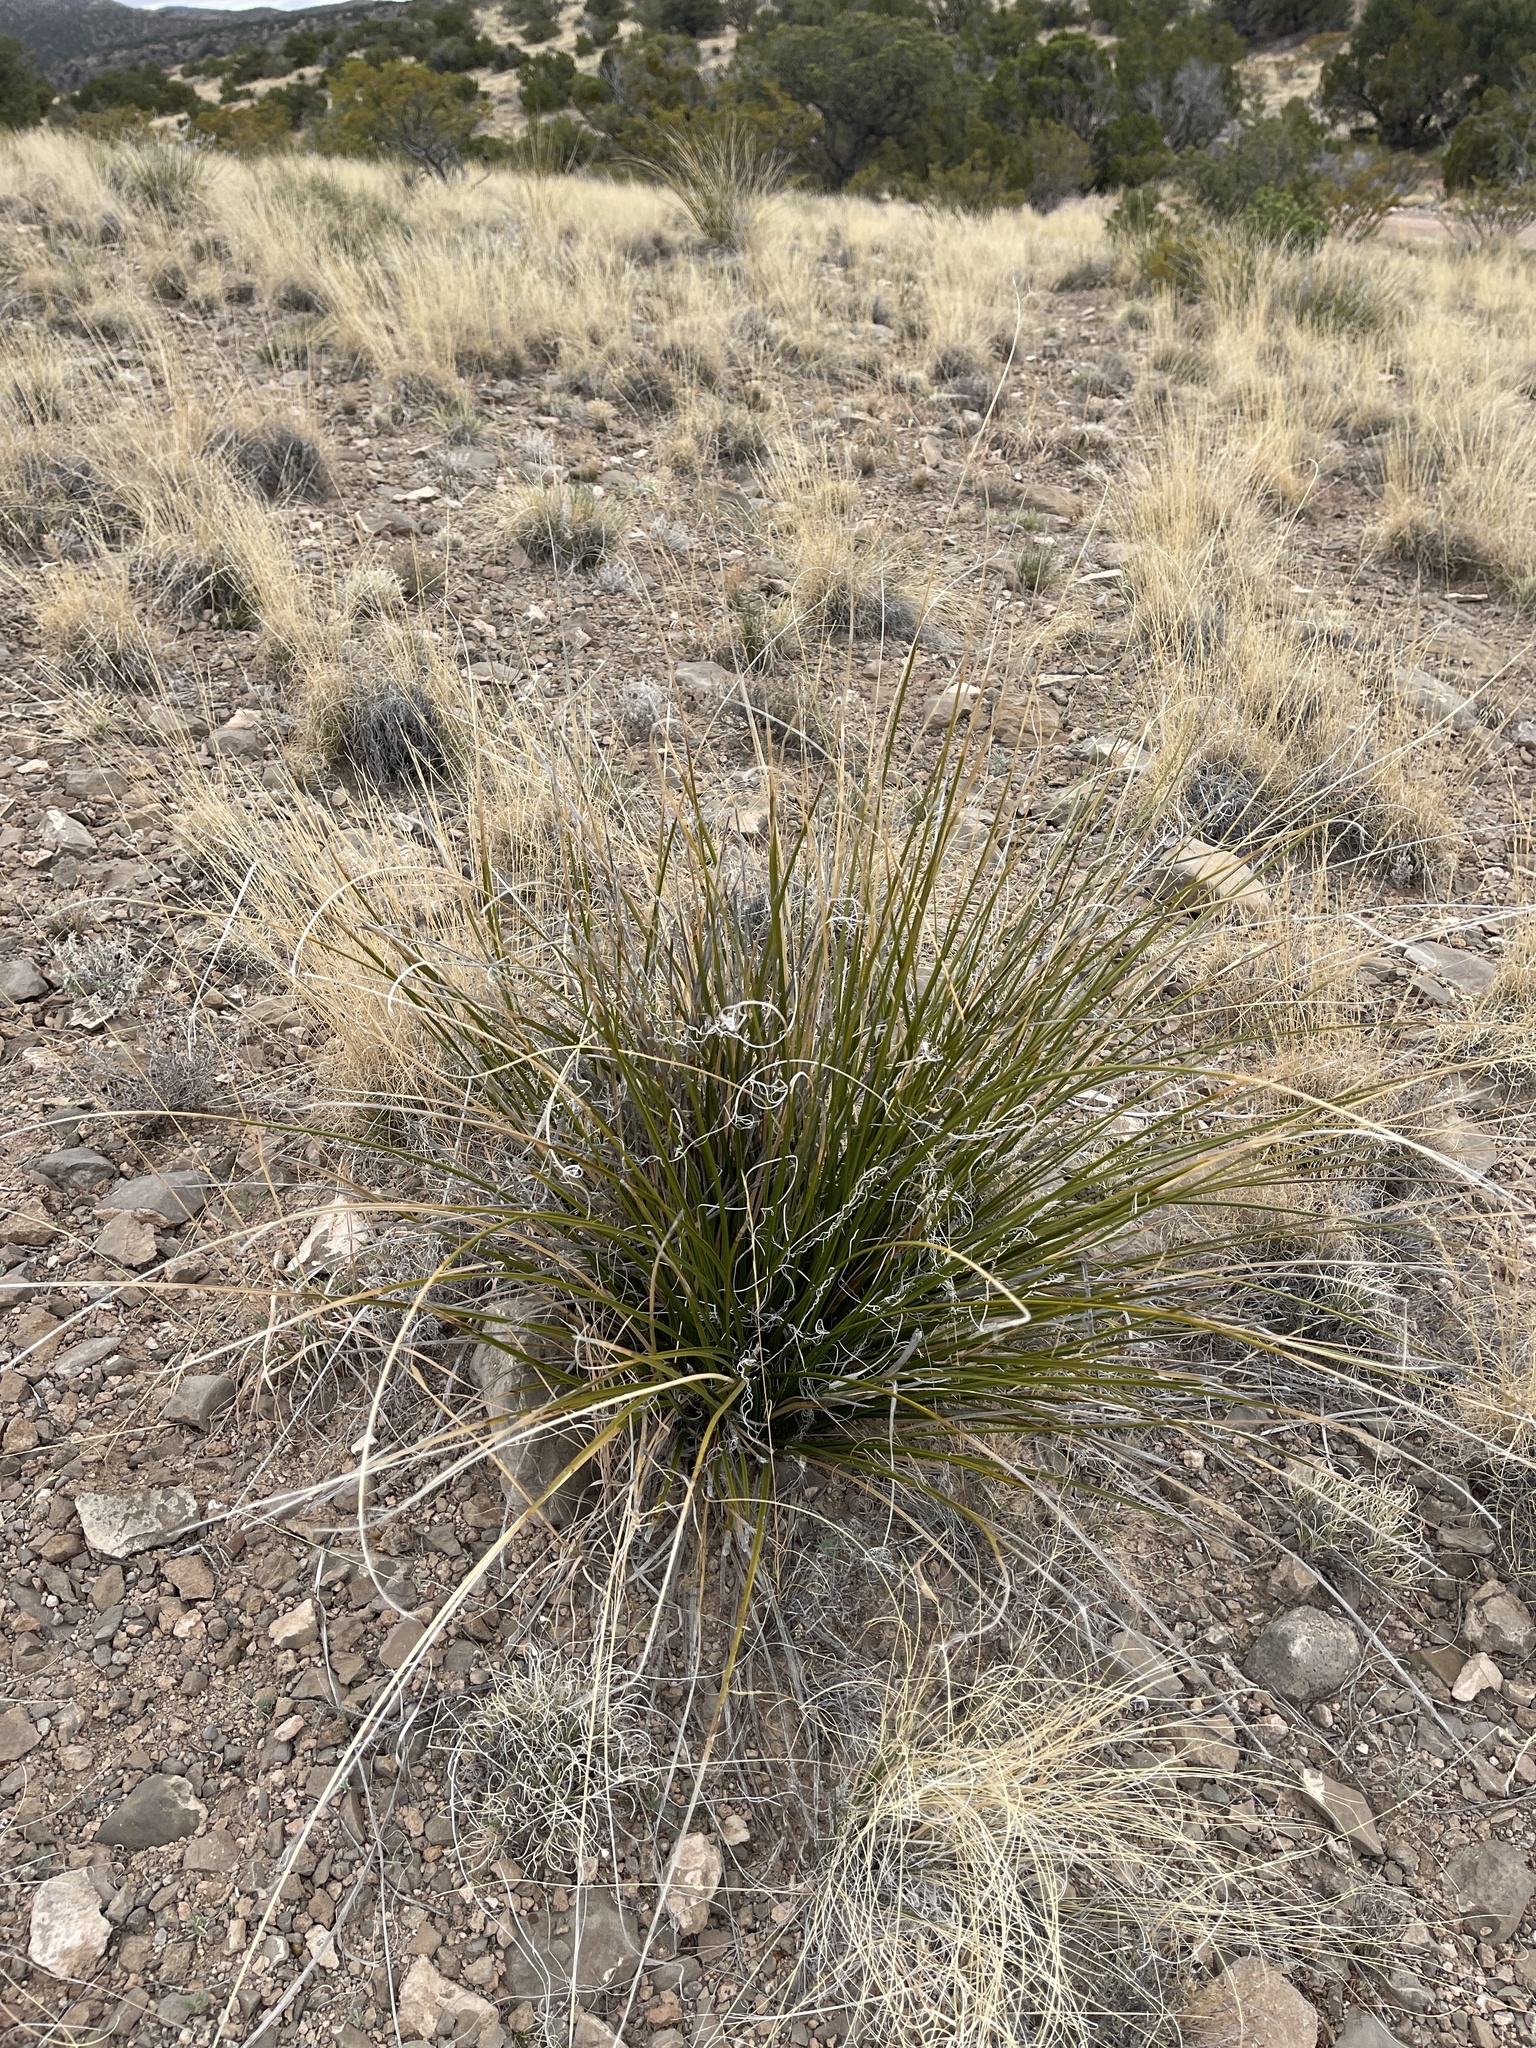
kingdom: Plantae
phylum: Tracheophyta
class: Liliopsida
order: Asparagales
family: Asparagaceae
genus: Nolina
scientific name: Nolina microcarpa
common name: Bear-grass
